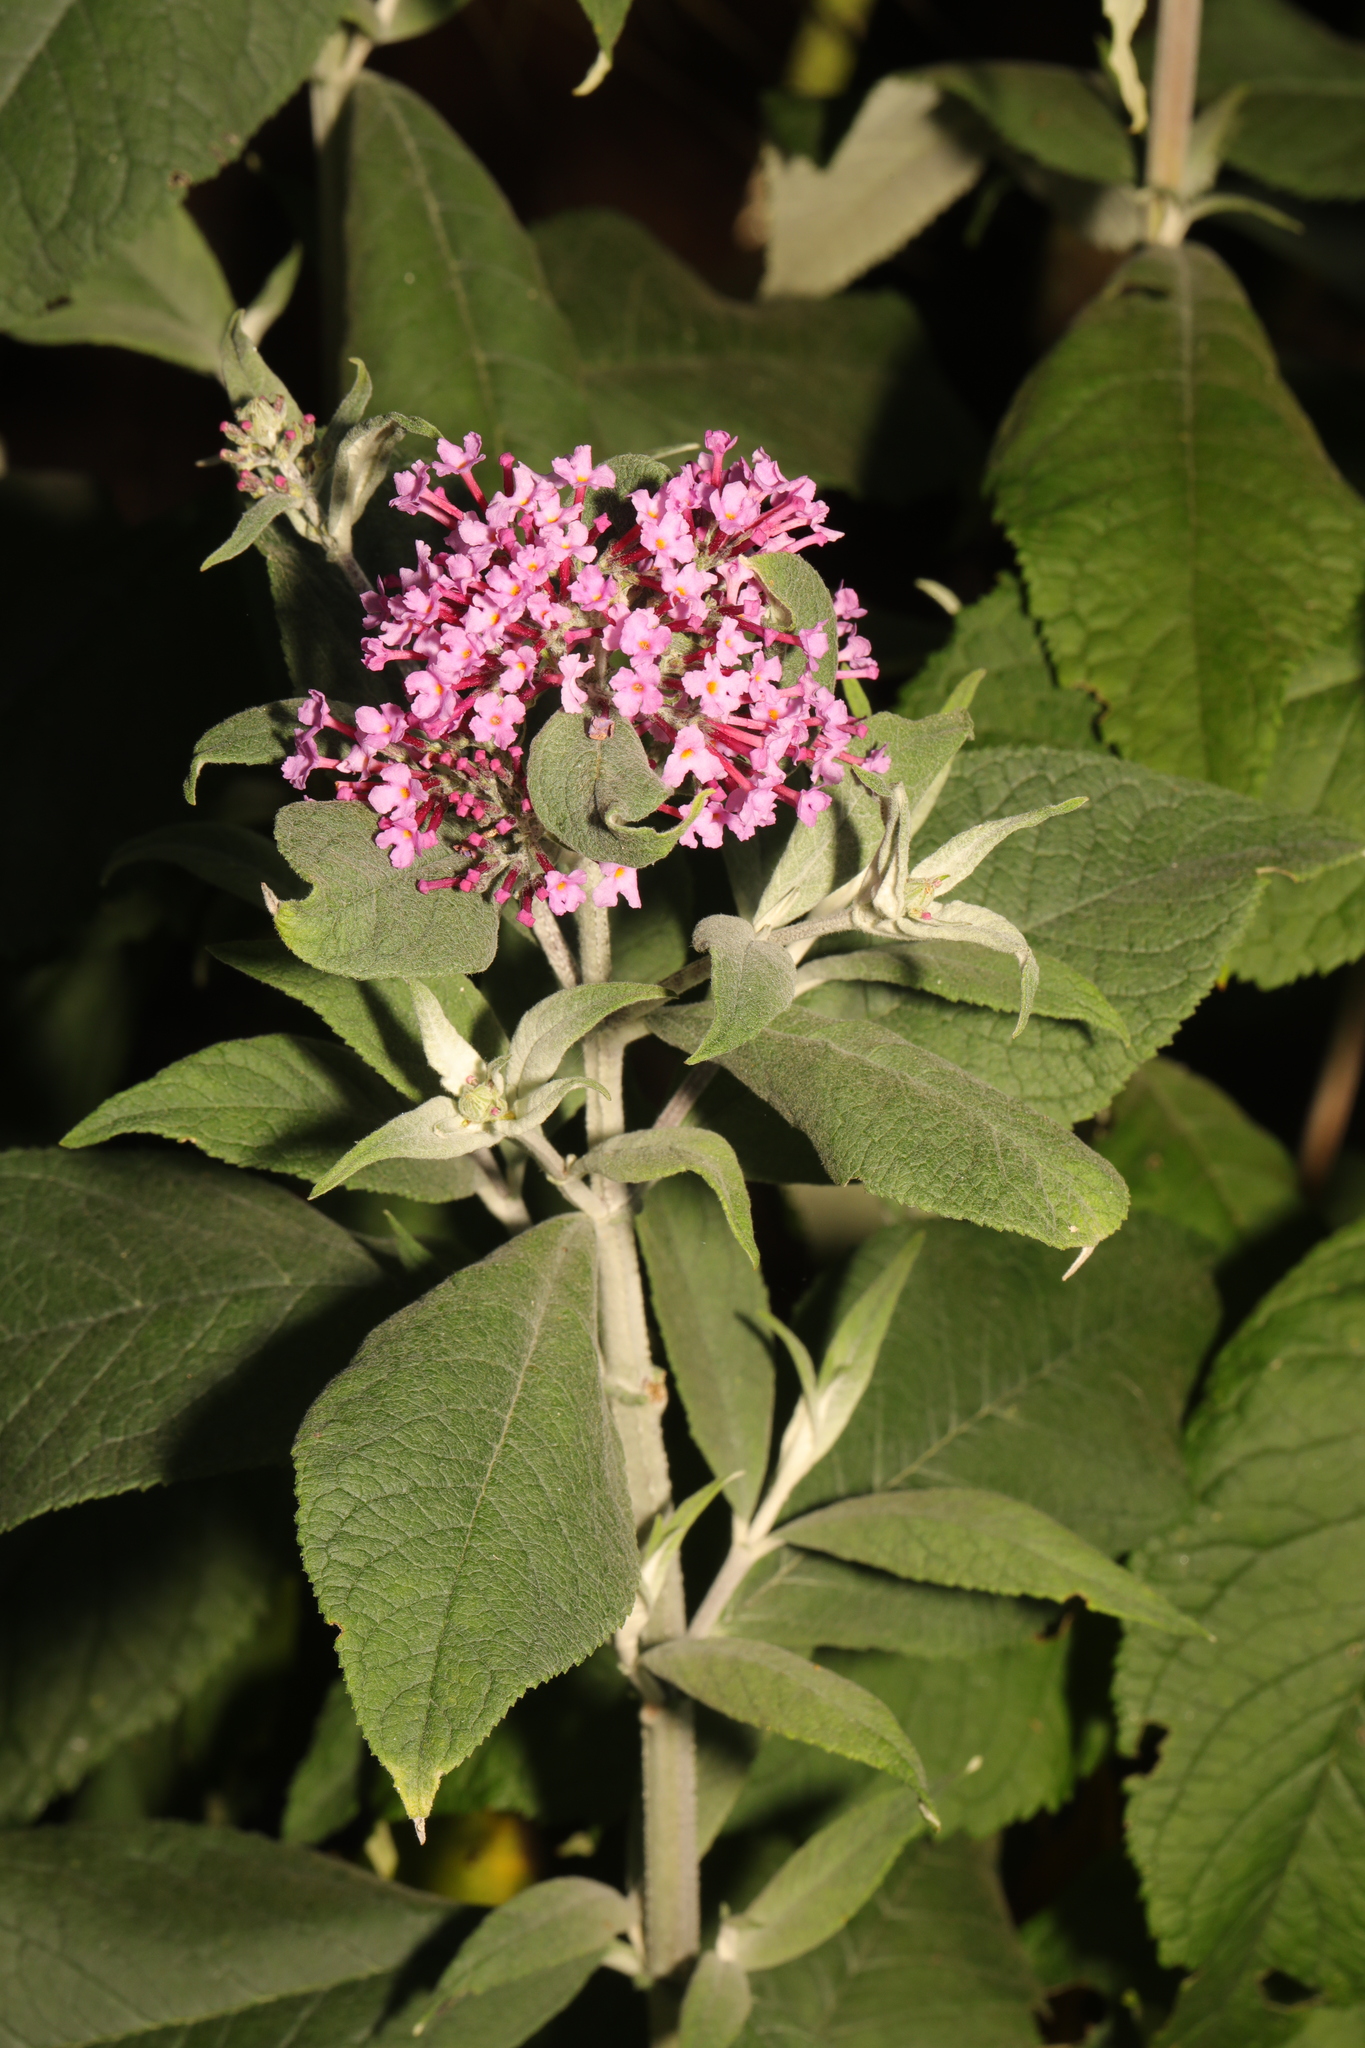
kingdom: Plantae
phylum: Tracheophyta
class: Magnoliopsida
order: Lamiales
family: Scrophulariaceae
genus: Buddleja
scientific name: Buddleja davidii
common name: Butterfly-bush
